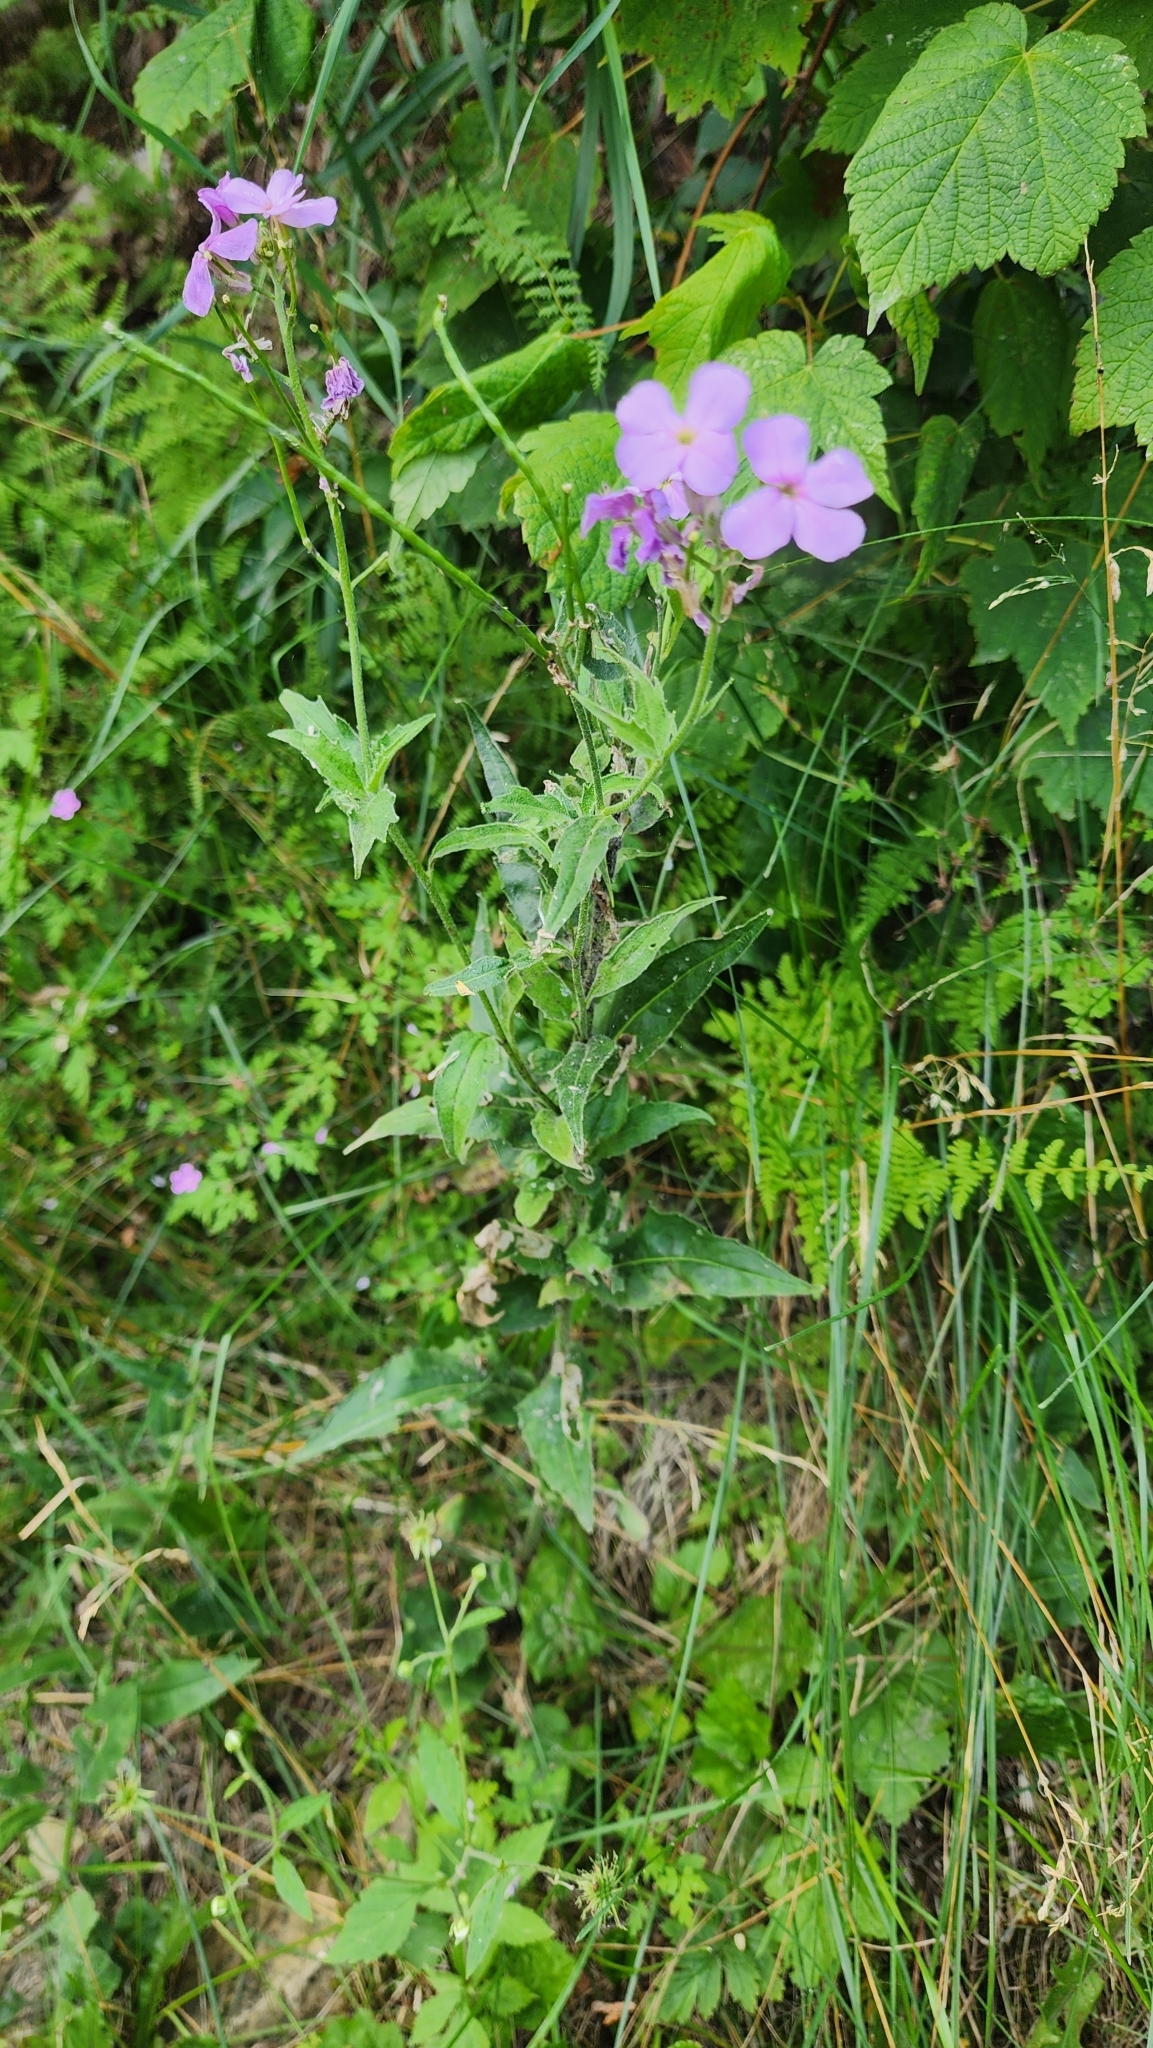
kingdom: Plantae
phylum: Tracheophyta
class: Magnoliopsida
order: Brassicales
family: Brassicaceae
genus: Hesperis
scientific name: Hesperis matronalis
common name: Dame's-violet
